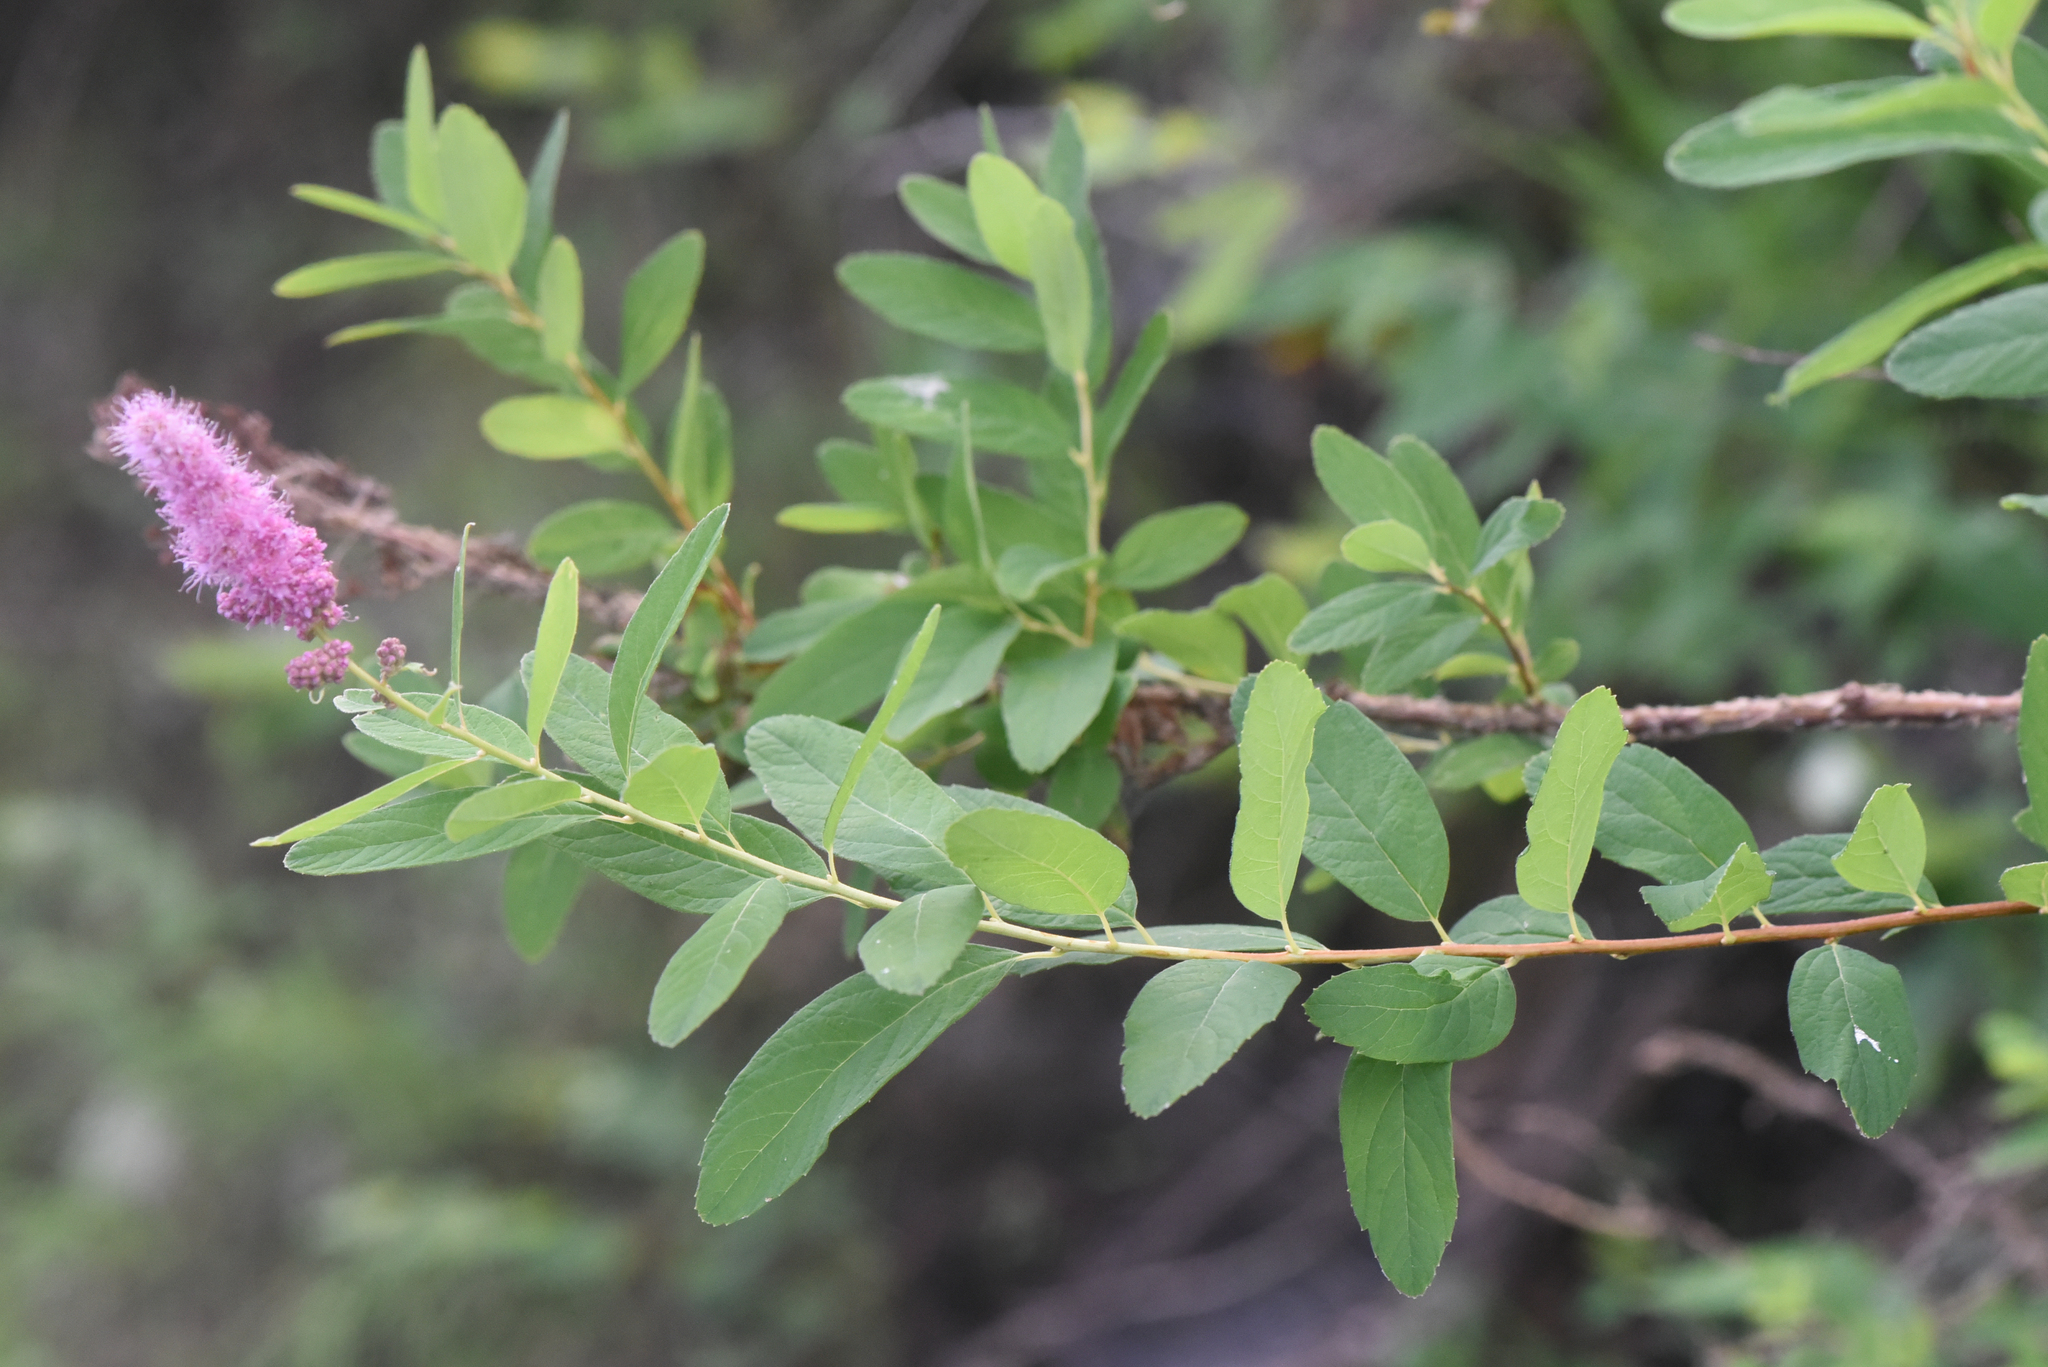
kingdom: Plantae
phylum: Tracheophyta
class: Magnoliopsida
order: Rosales
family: Rosaceae
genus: Spiraea
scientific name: Spiraea douglasii
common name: Steeplebush
